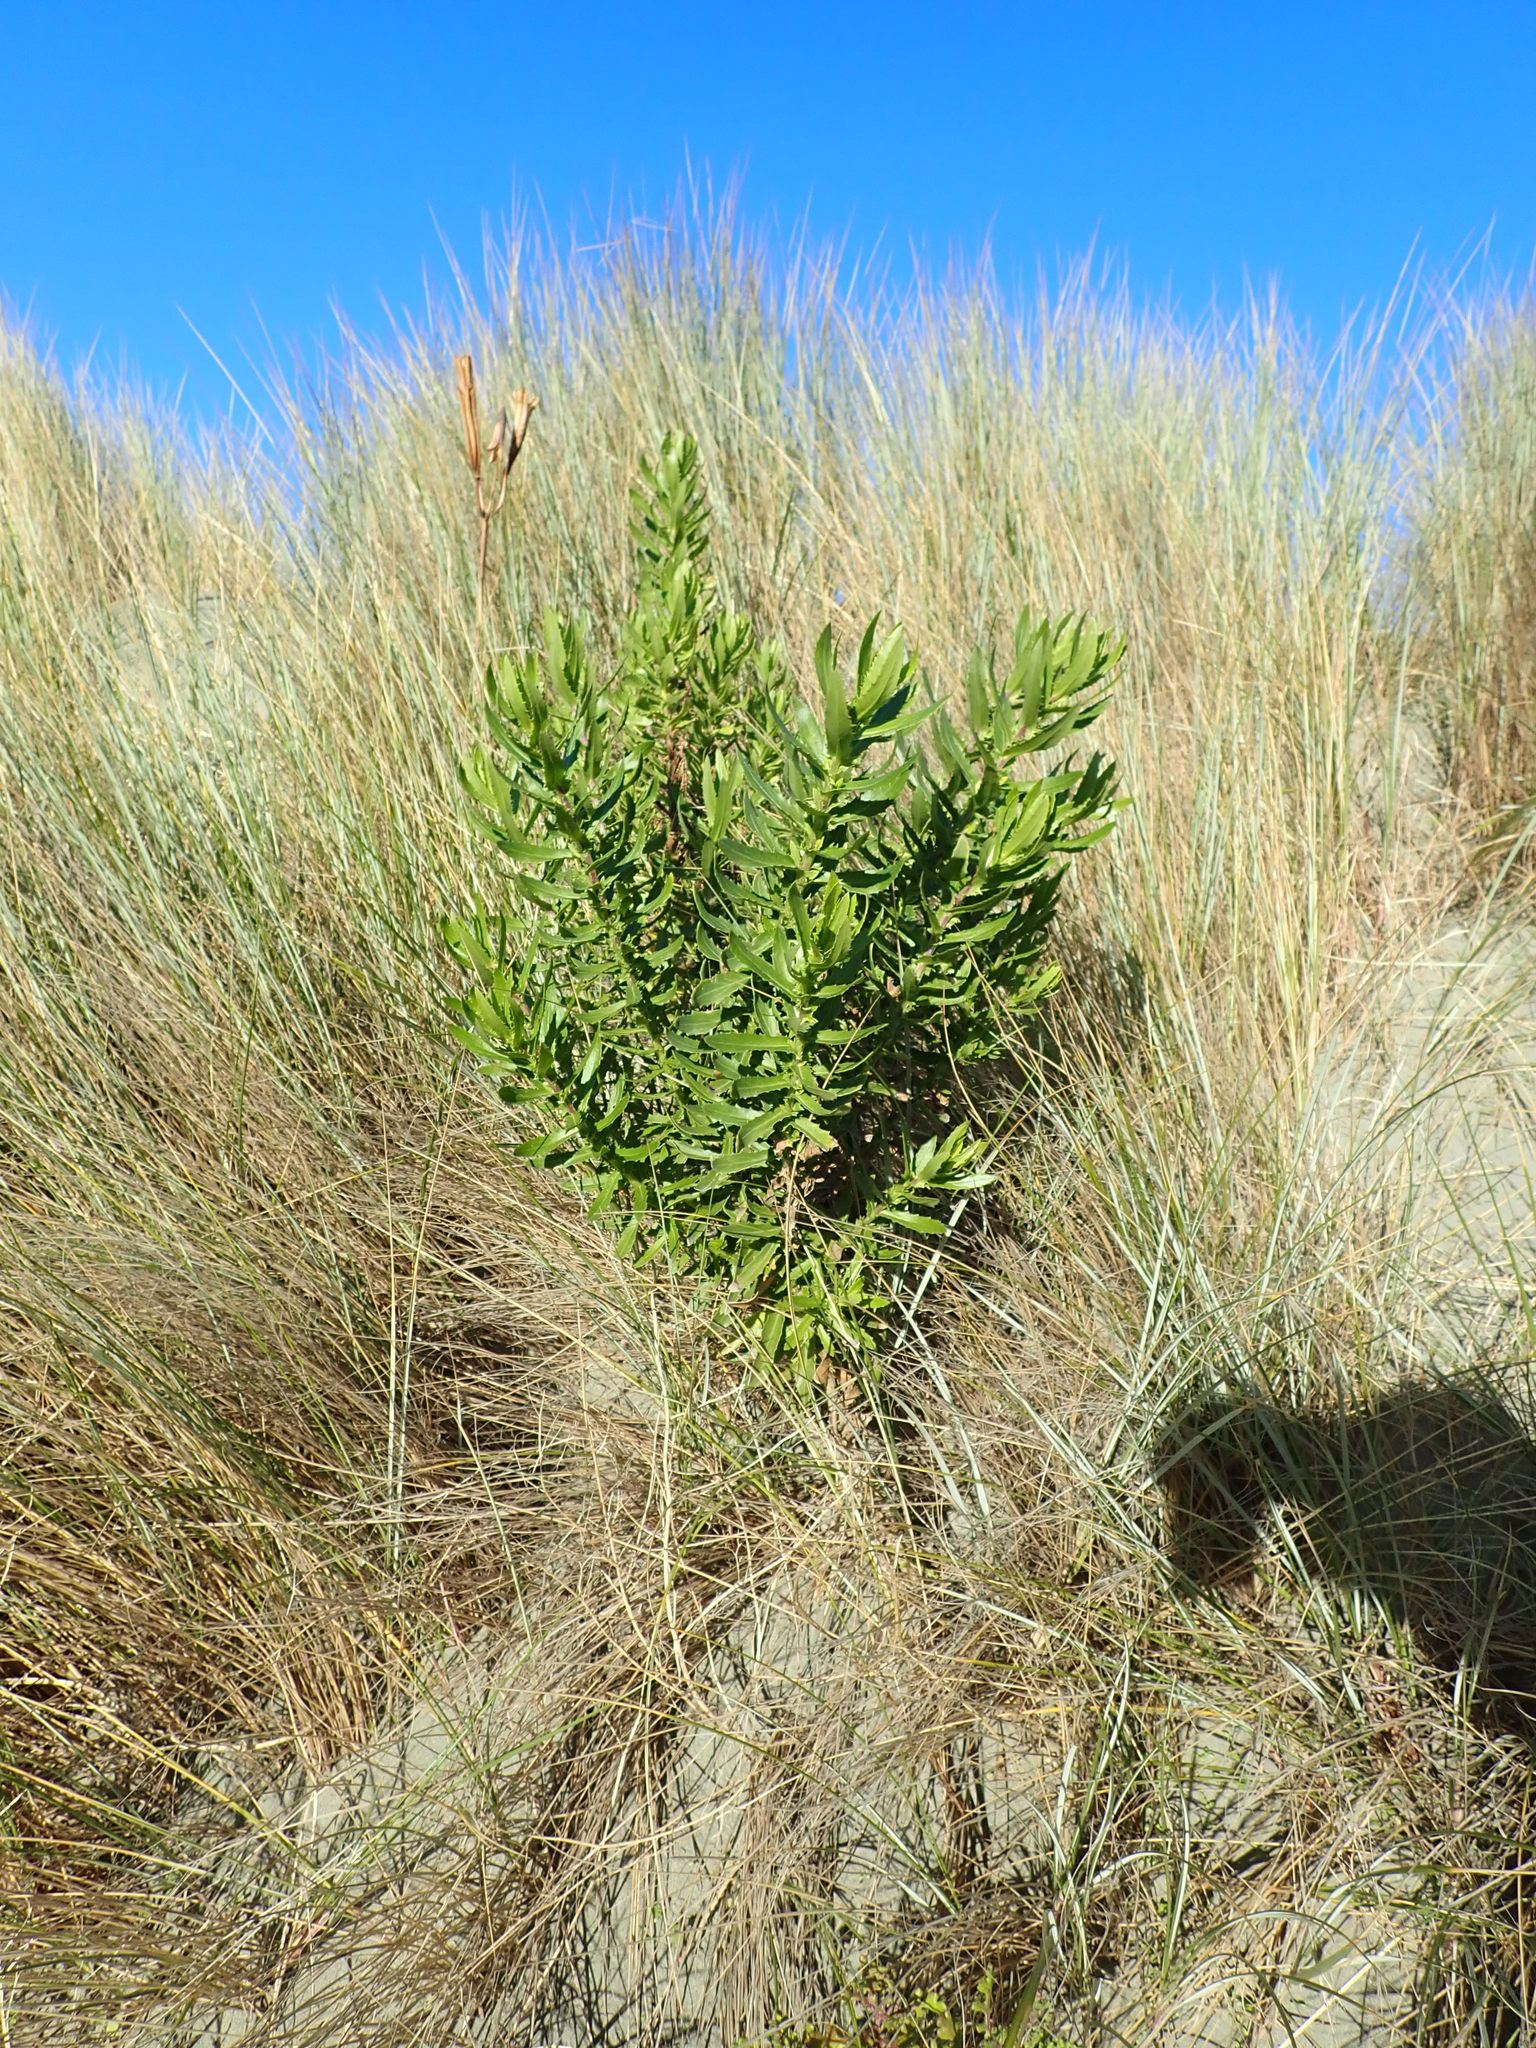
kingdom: Plantae
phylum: Tracheophyta
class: Magnoliopsida
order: Asterales
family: Asteraceae
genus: Senecio
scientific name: Senecio glastifolius
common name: Woad-leaved ragwort
